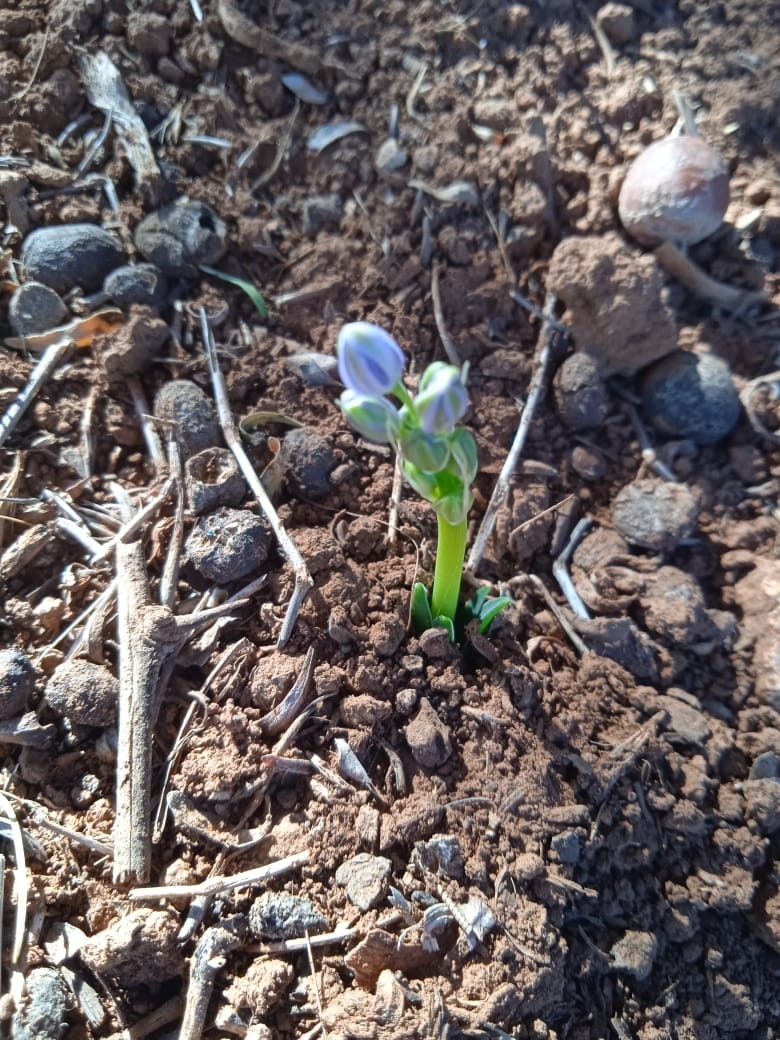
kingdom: Plantae
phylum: Tracheophyta
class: Liliopsida
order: Asparagales
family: Asparagaceae
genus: Hyacinthoides
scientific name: Hyacinthoides lingulata
